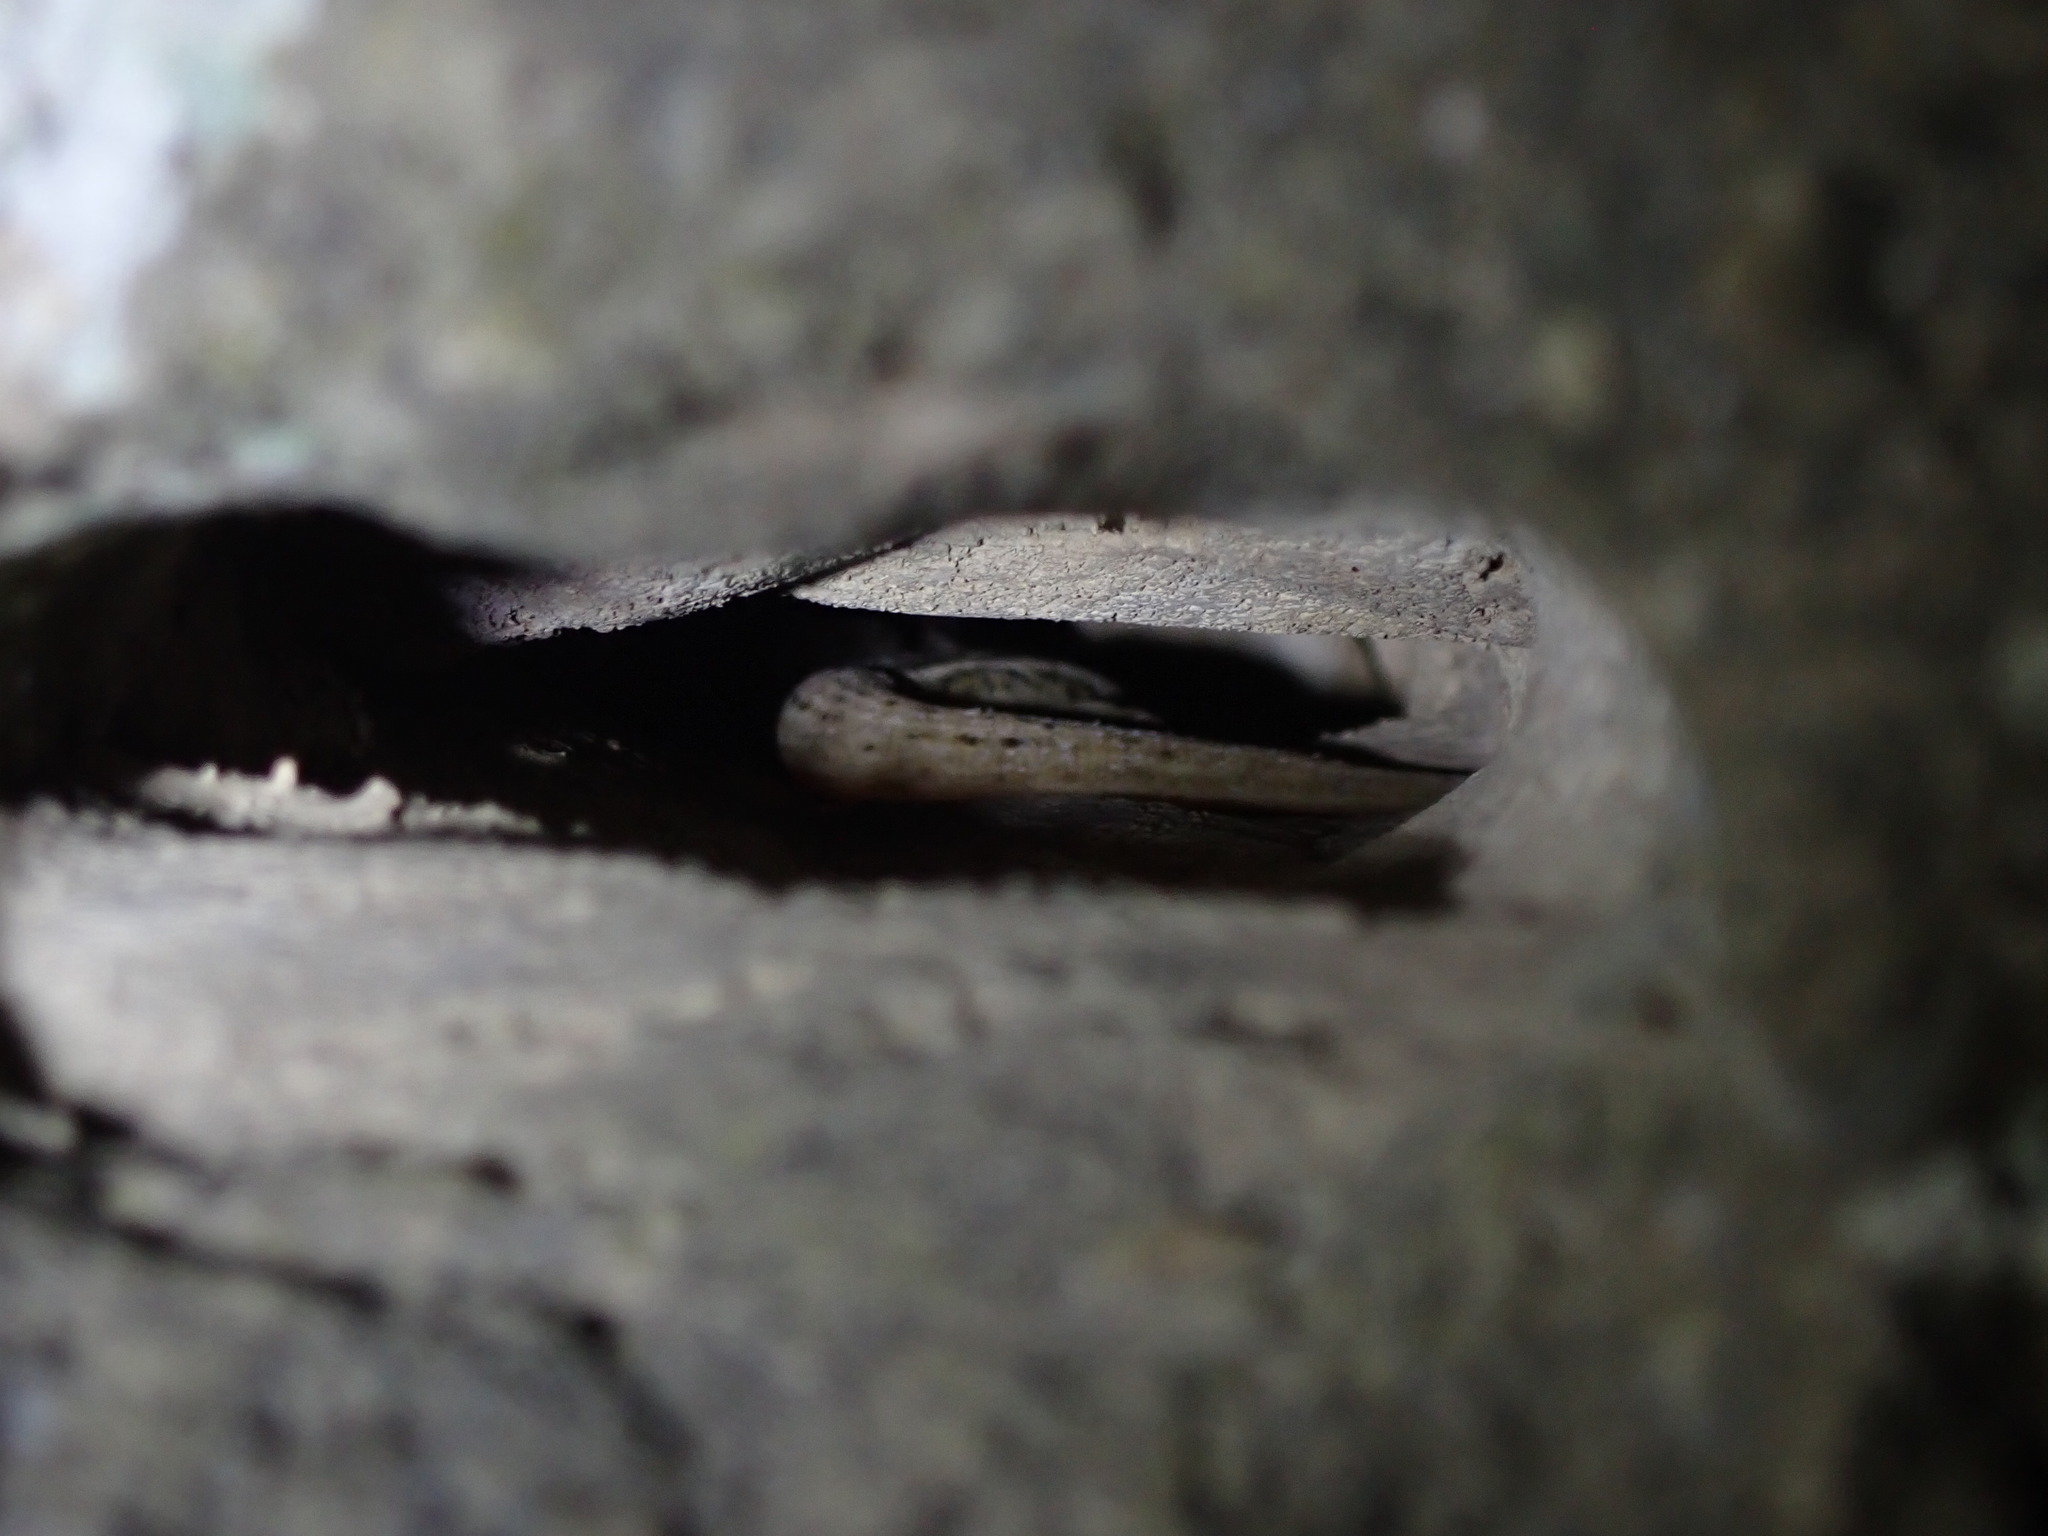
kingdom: Animalia
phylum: Chordata
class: Squamata
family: Diplodactylidae
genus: Woodworthia
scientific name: Woodworthia maculata
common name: Raukawa gecko
